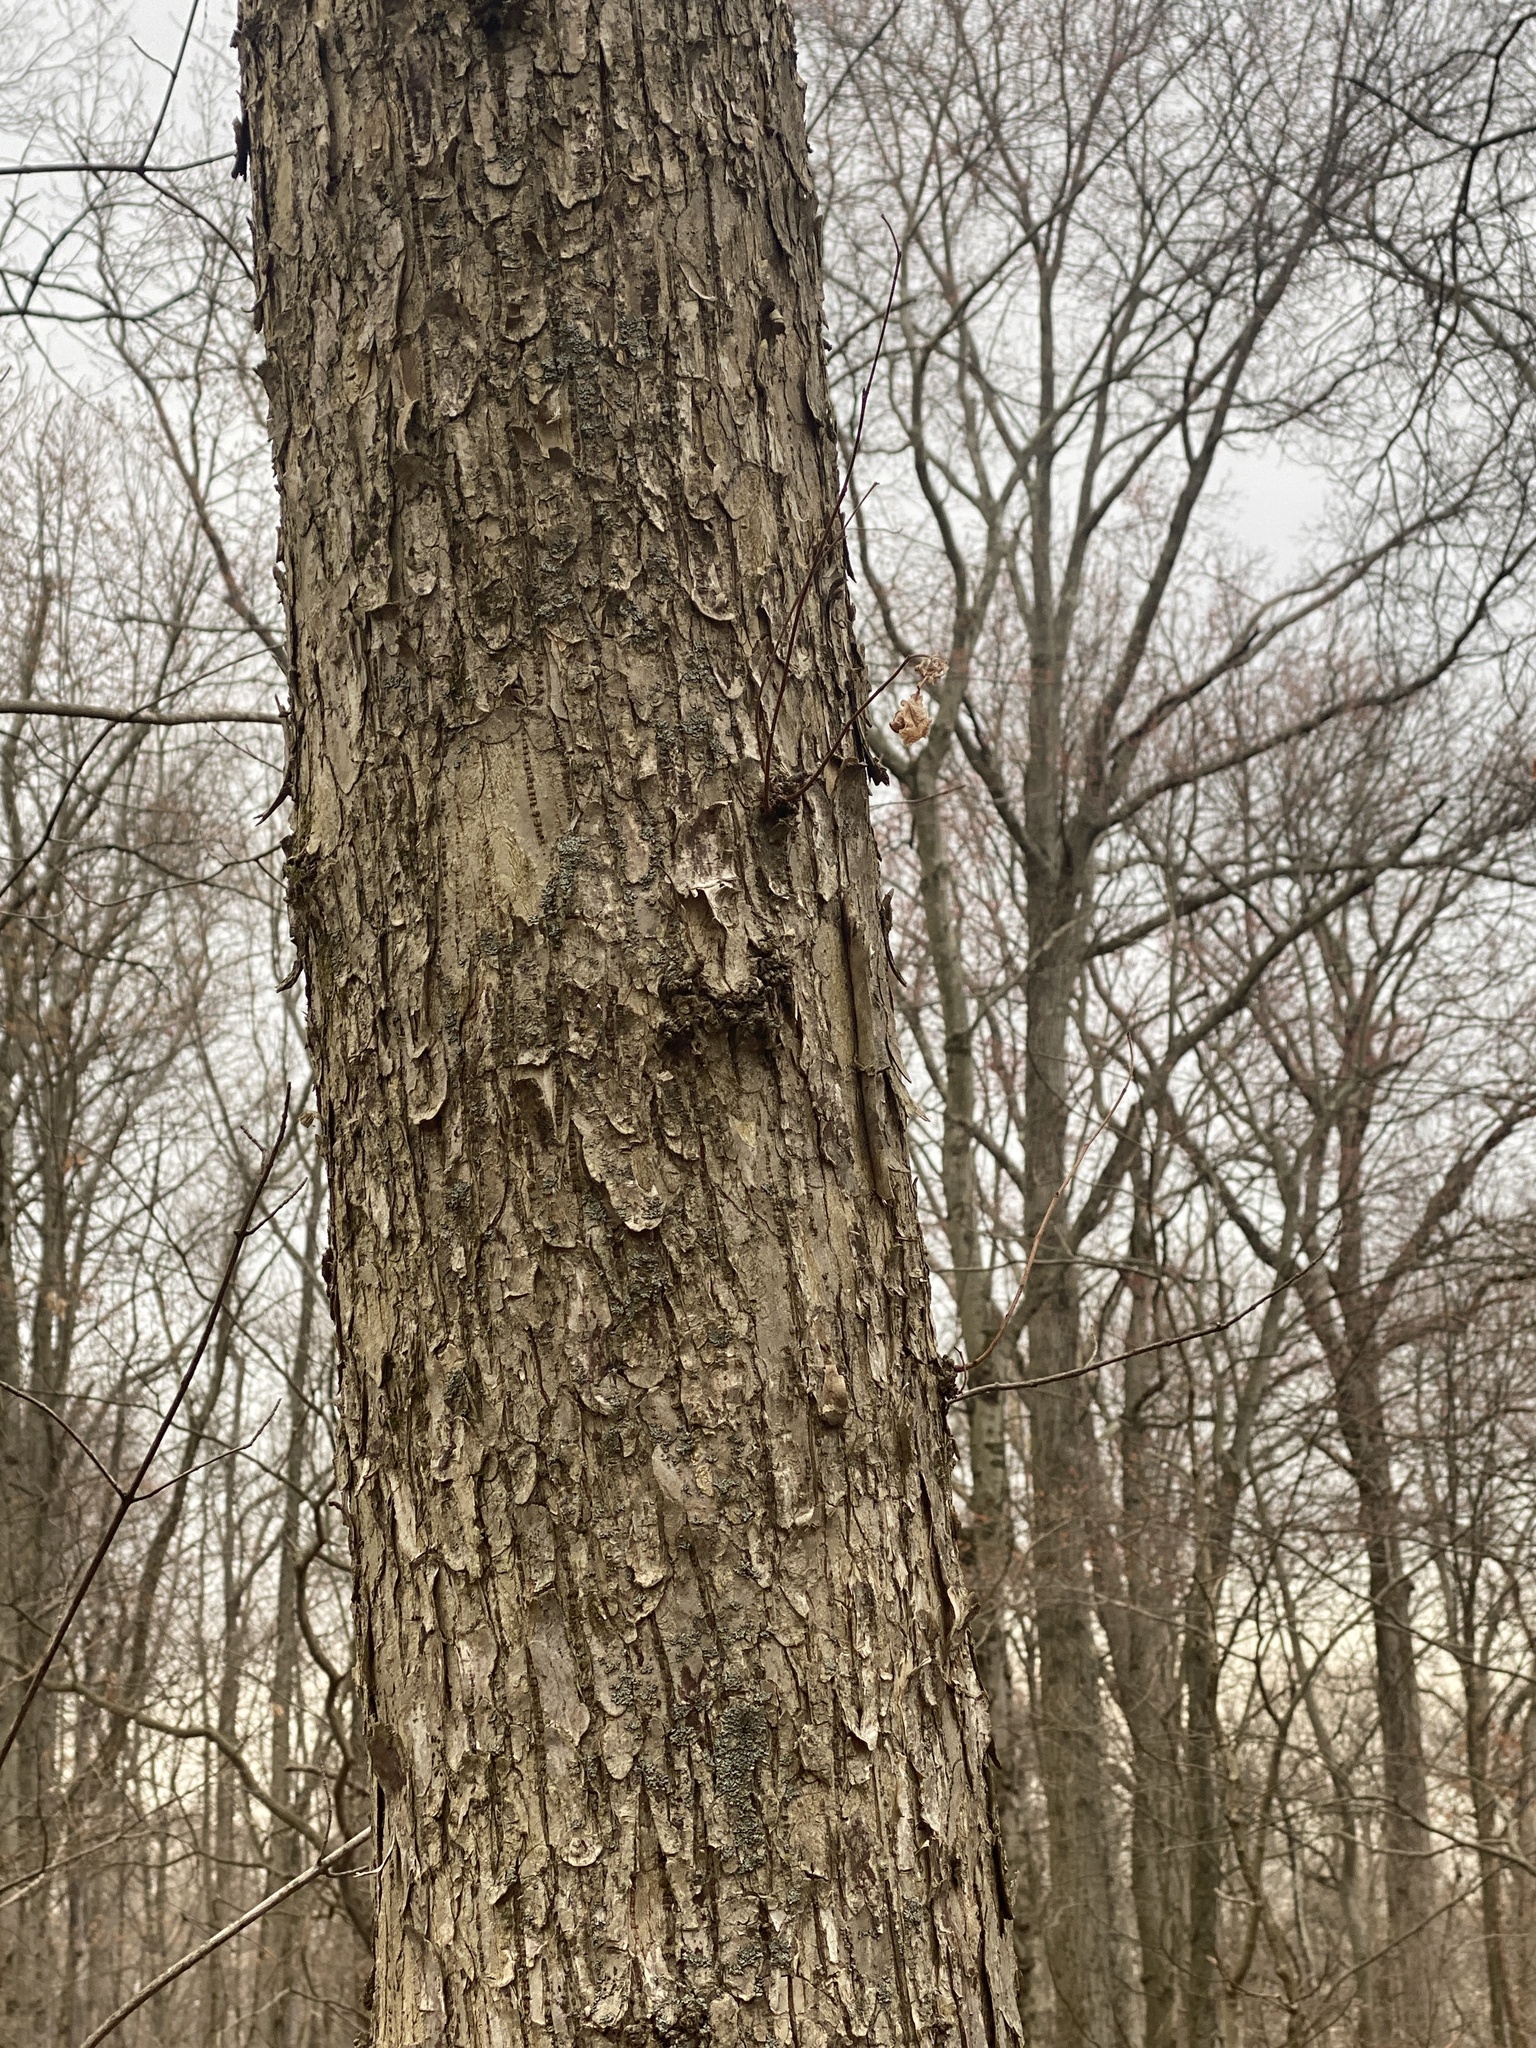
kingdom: Plantae
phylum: Tracheophyta
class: Magnoliopsida
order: Fagales
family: Betulaceae
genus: Ostrya
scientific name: Ostrya virginiana
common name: Ironwood
